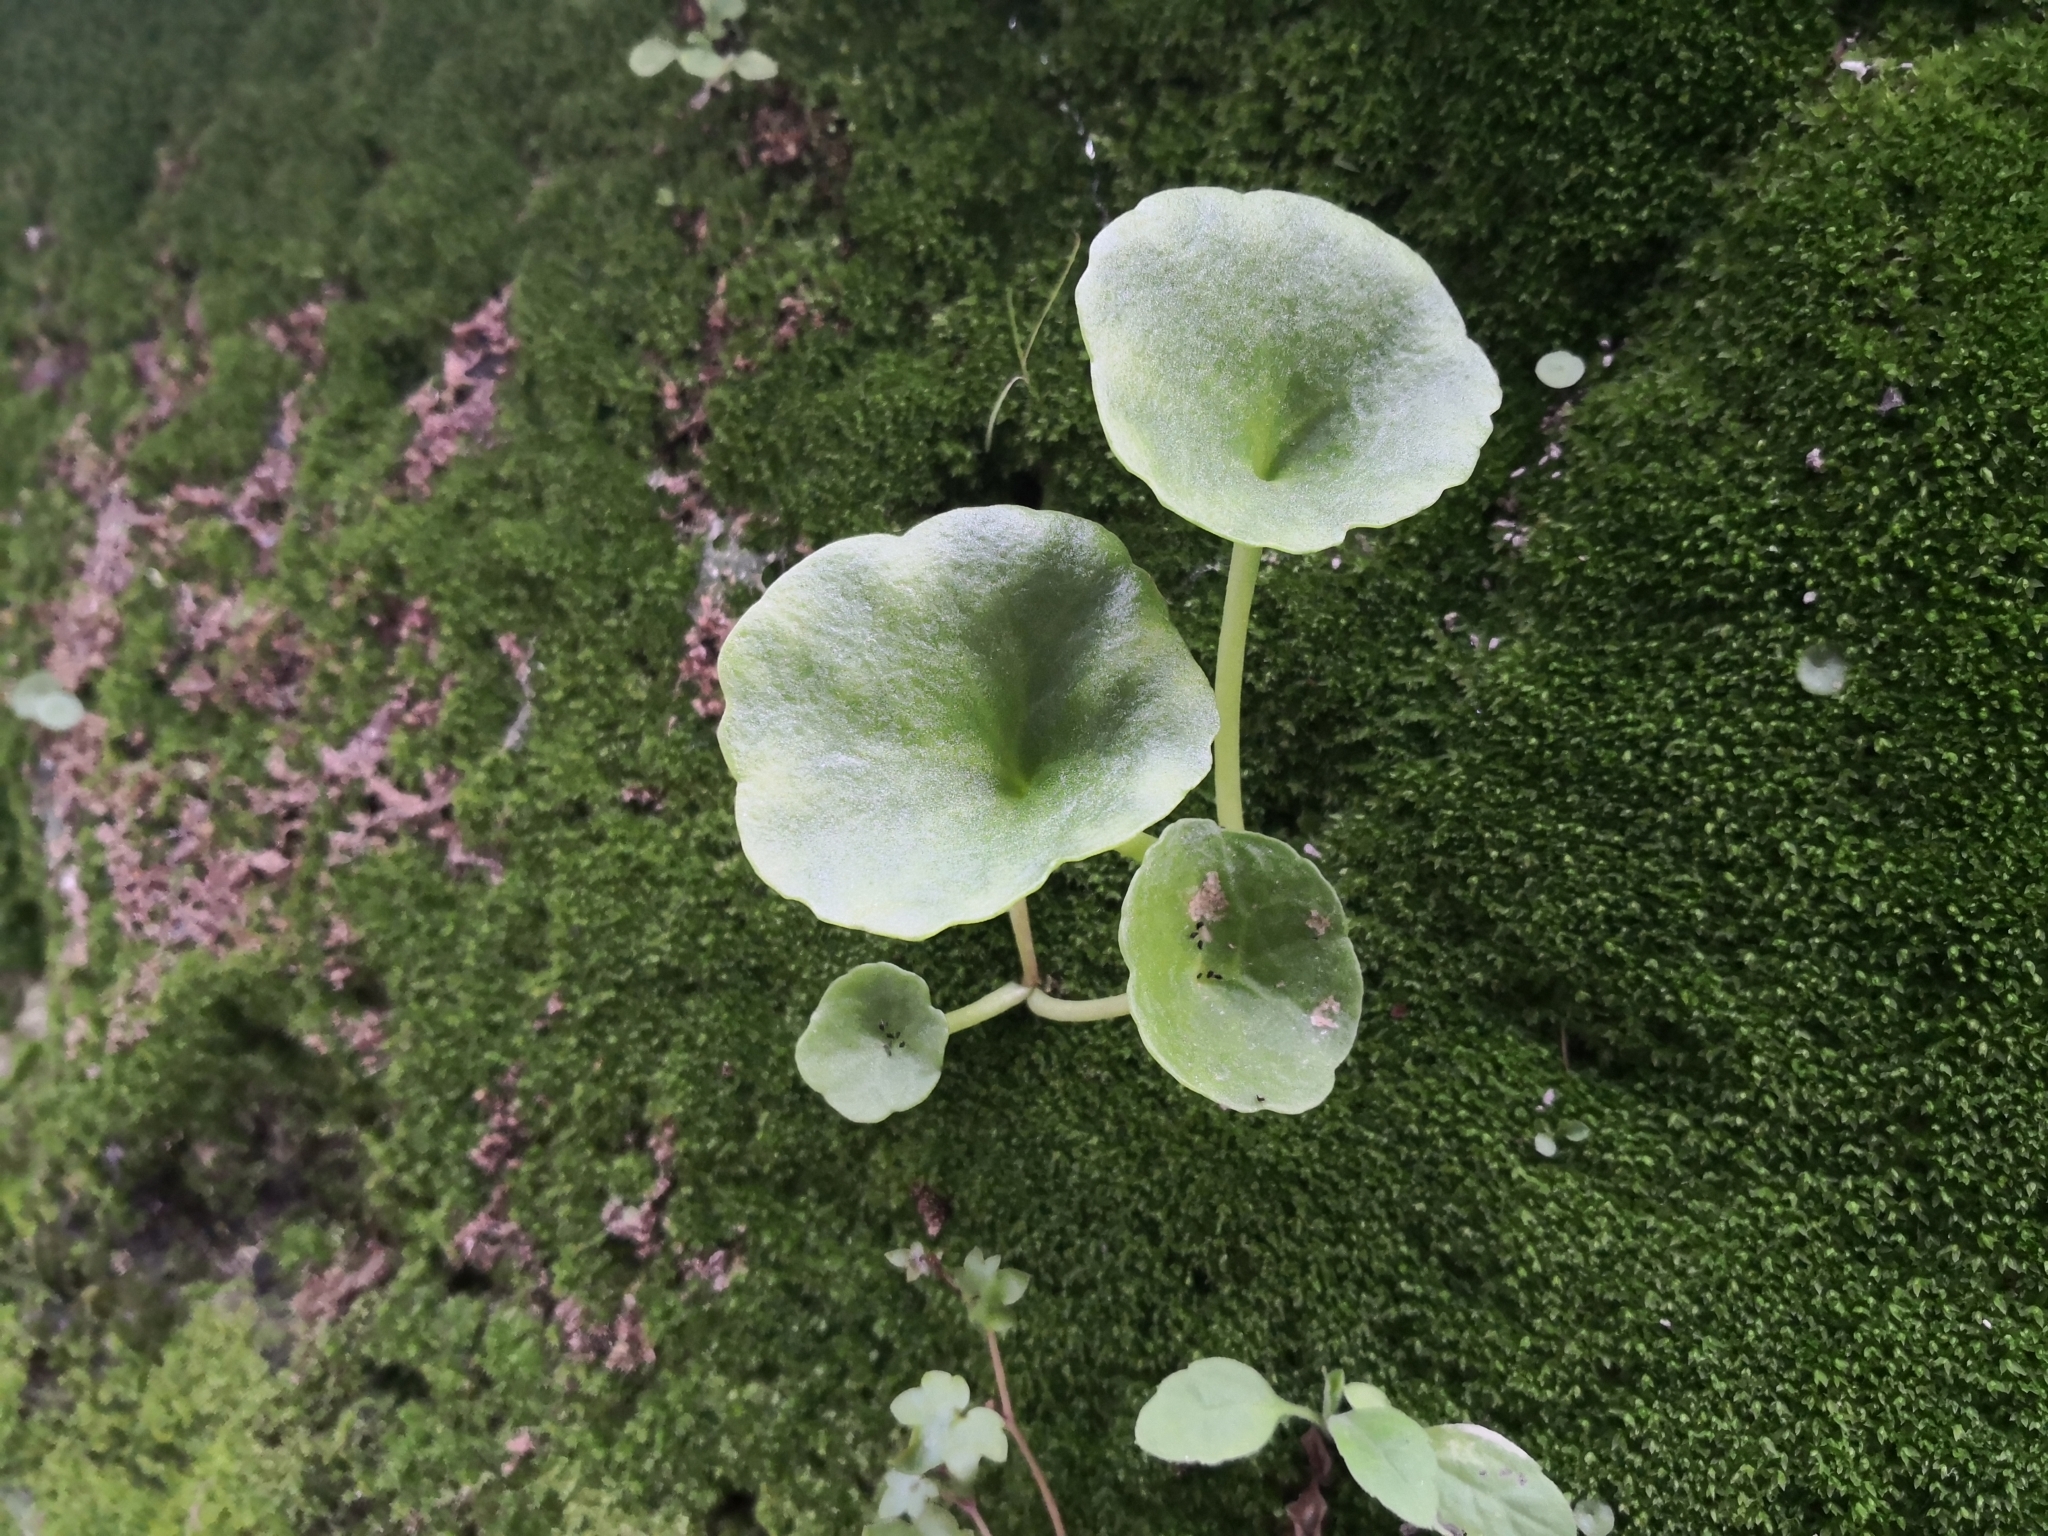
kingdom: Plantae
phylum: Tracheophyta
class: Magnoliopsida
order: Saxifragales
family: Crassulaceae
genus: Umbilicus
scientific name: Umbilicus rupestris
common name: Navelwort
